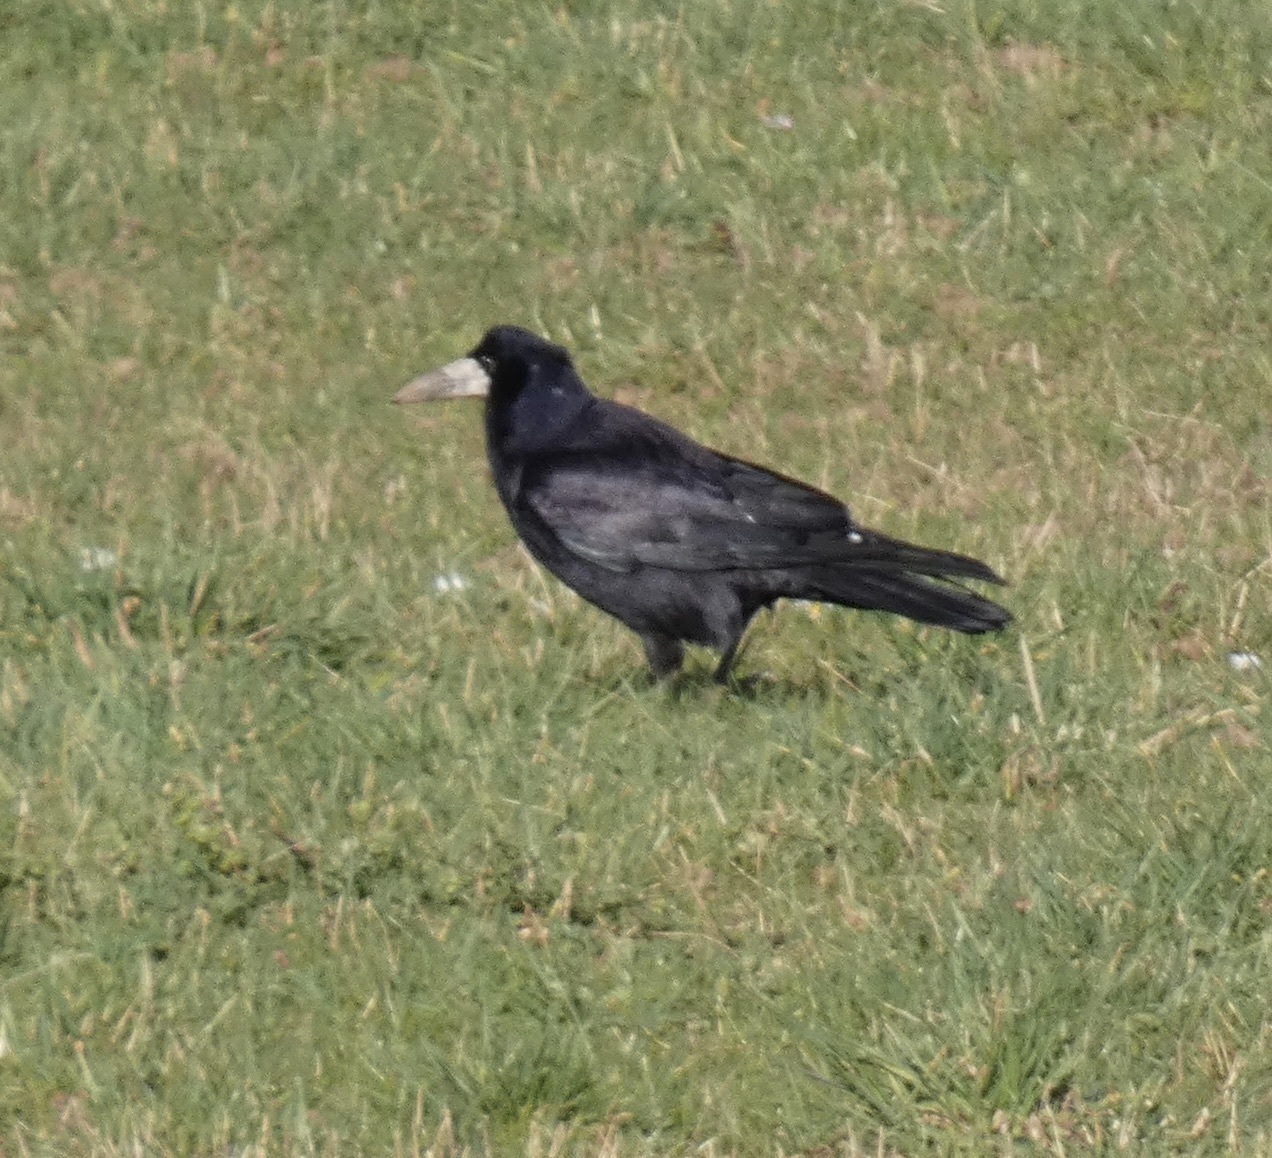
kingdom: Animalia
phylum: Chordata
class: Aves
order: Passeriformes
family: Corvidae
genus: Corvus
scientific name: Corvus frugilegus
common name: Rook
